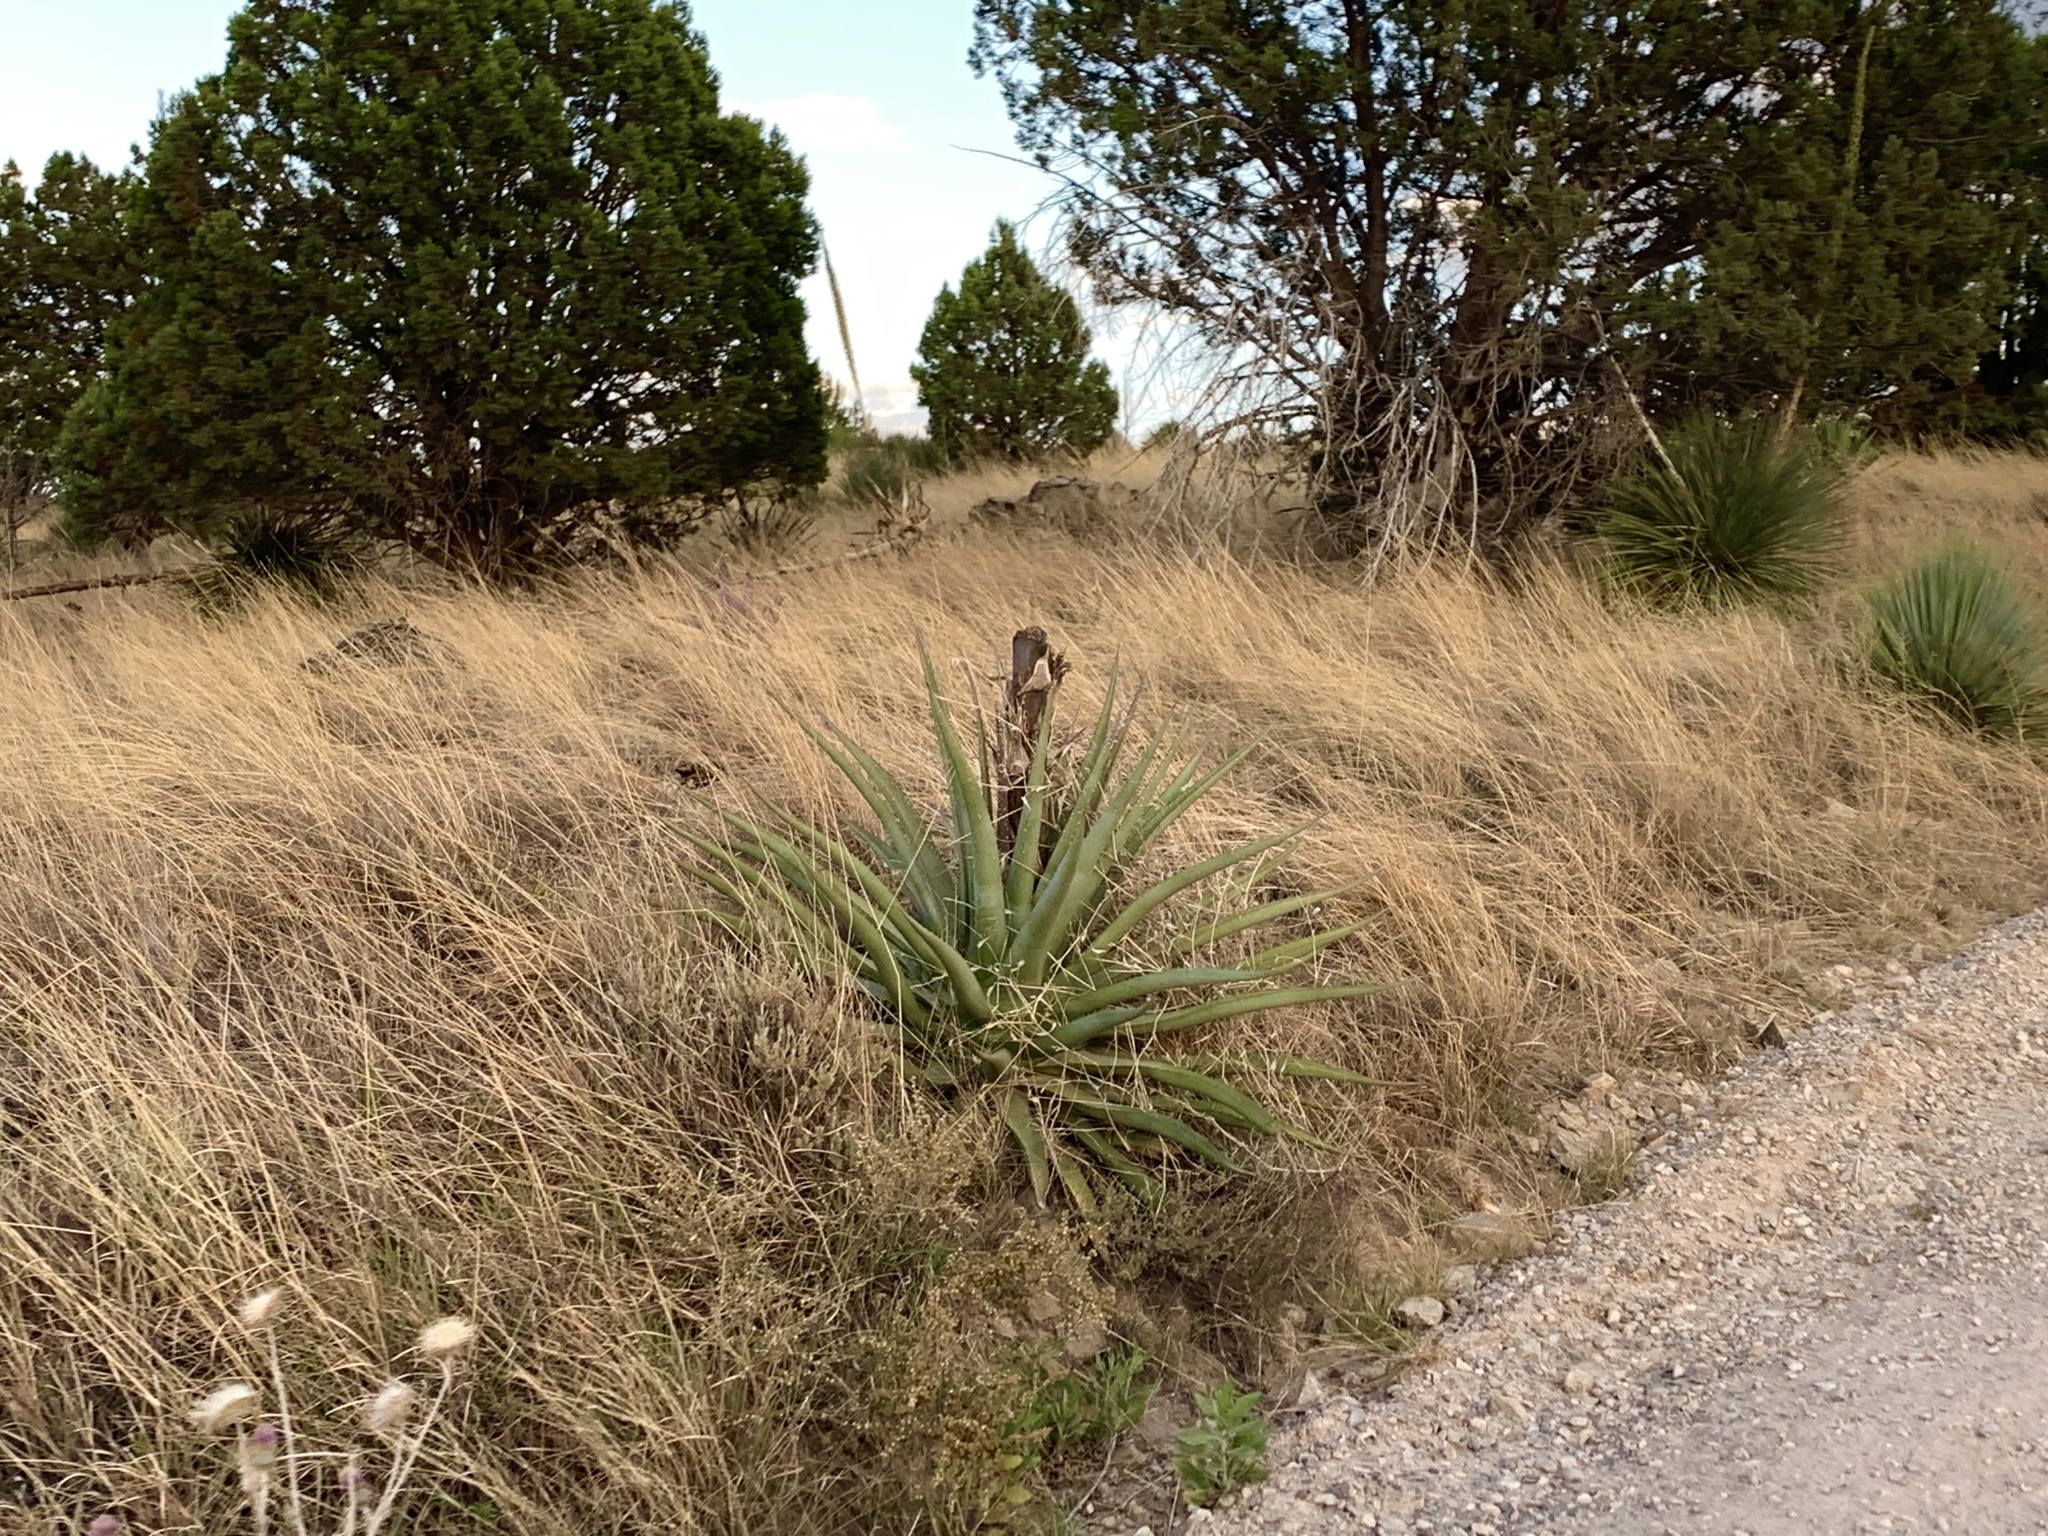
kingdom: Plantae
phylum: Tracheophyta
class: Liliopsida
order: Asparagales
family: Asparagaceae
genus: Agave
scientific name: Agave palmeri
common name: Palmer agave
